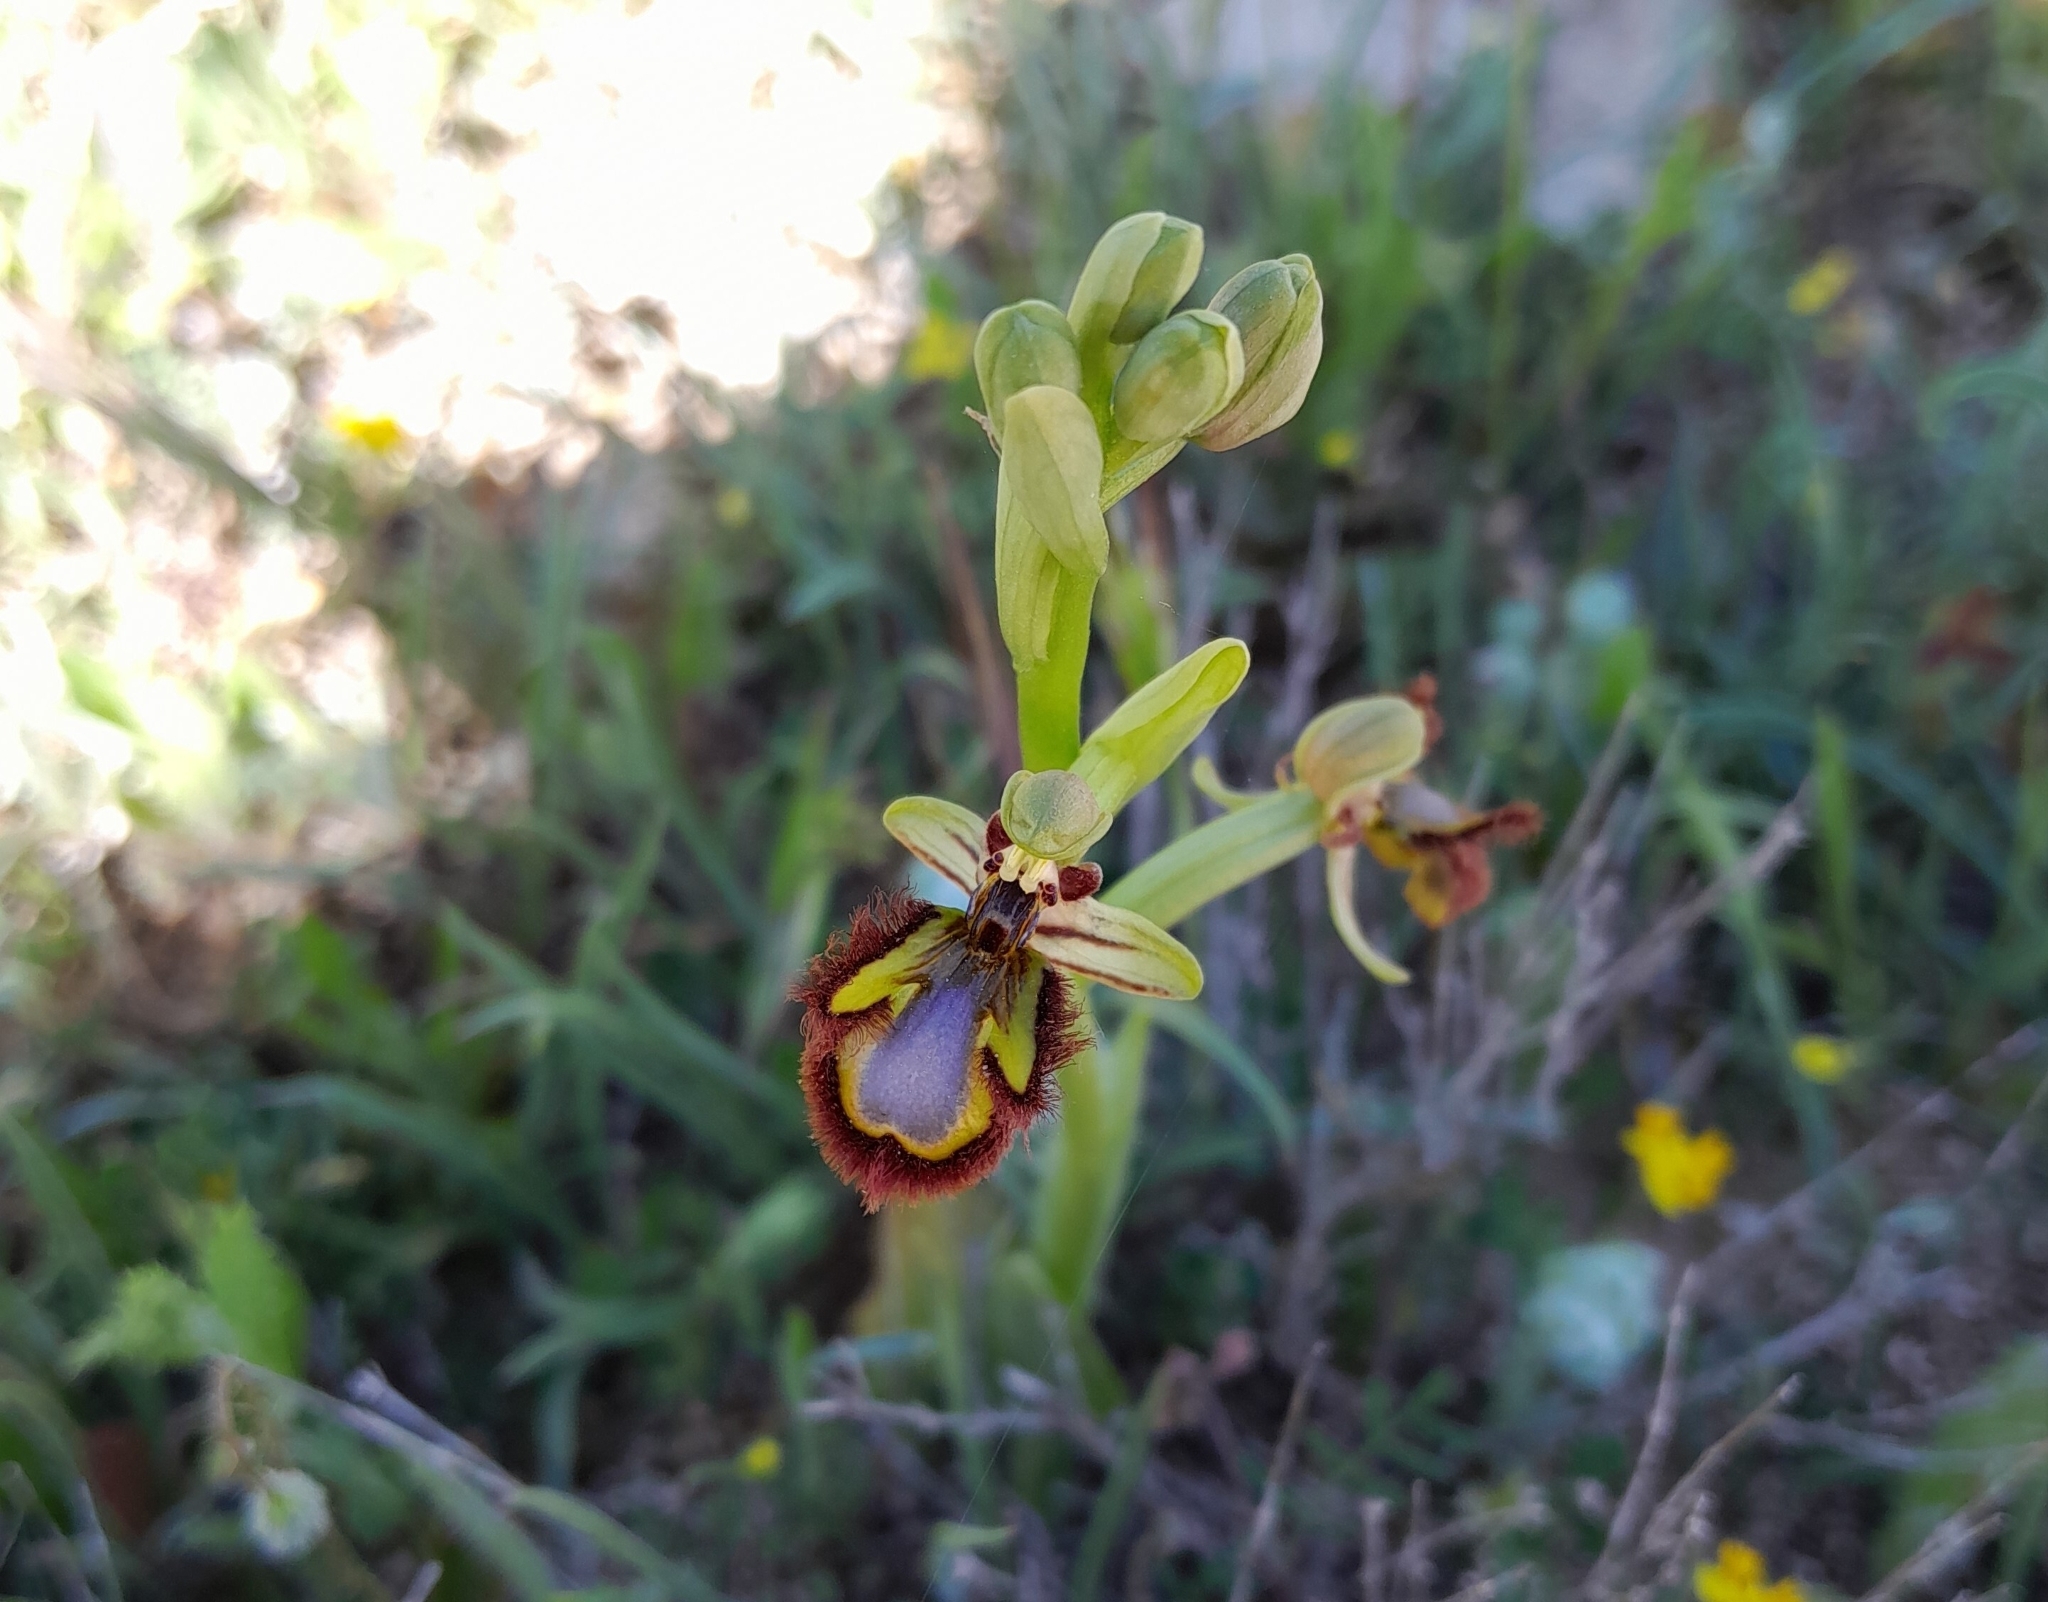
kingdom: Plantae
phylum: Tracheophyta
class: Liliopsida
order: Asparagales
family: Orchidaceae
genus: Ophrys
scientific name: Ophrys speculum
